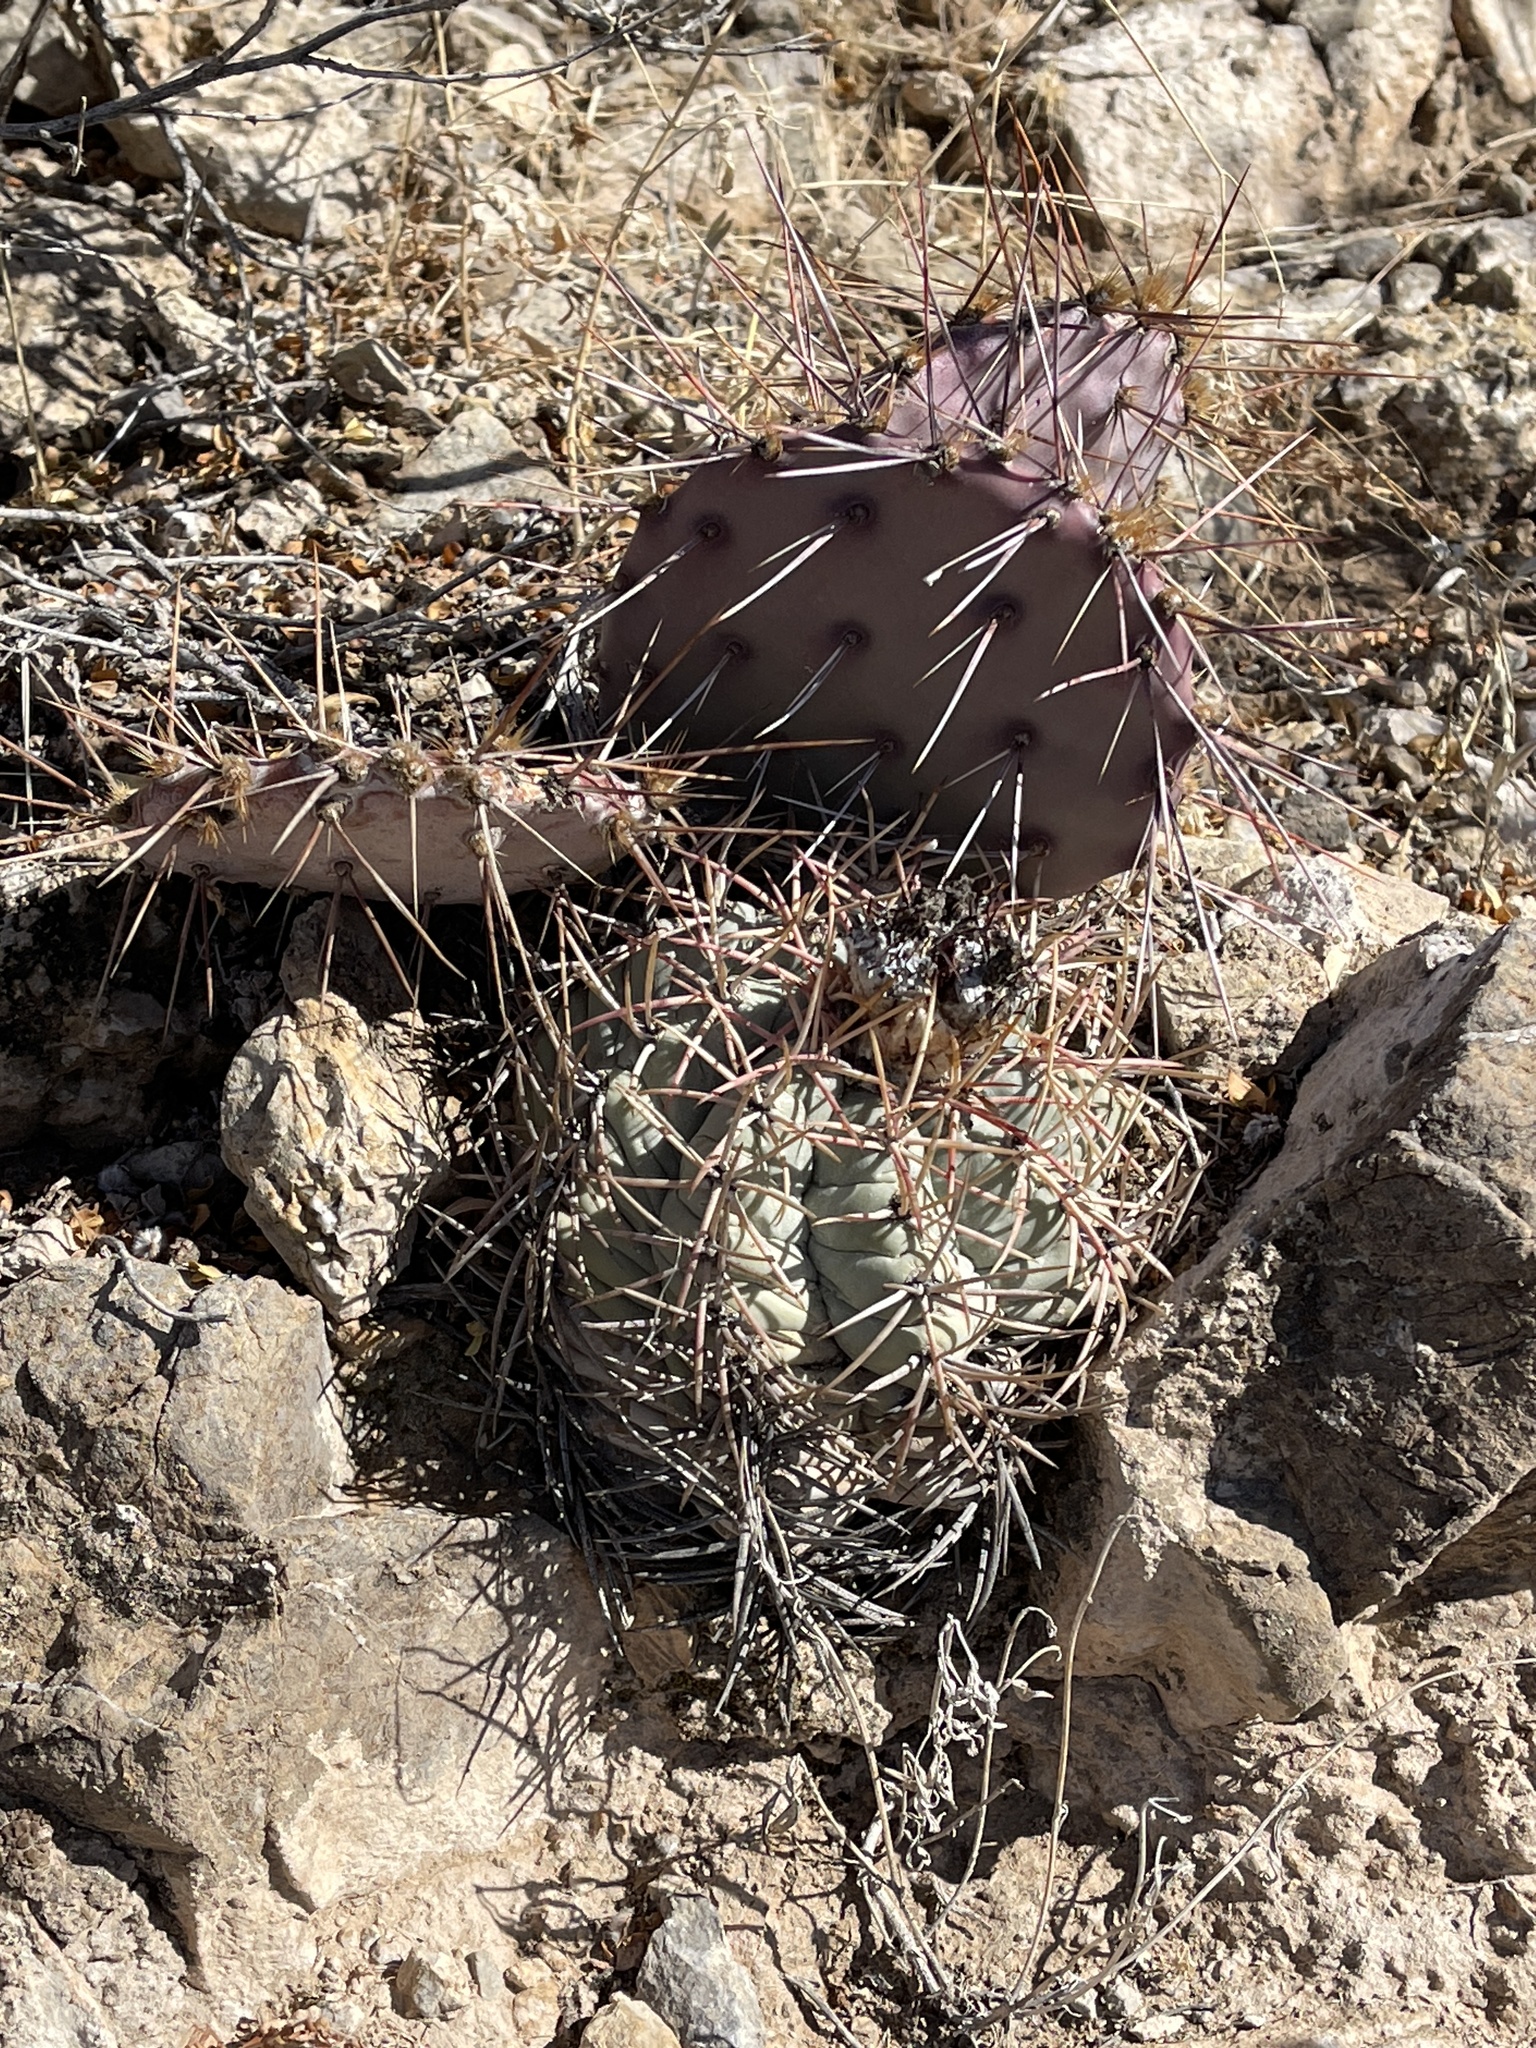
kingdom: Plantae
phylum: Tracheophyta
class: Magnoliopsida
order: Caryophyllales
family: Cactaceae
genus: Echinocactus
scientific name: Echinocactus horizonthalonius
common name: Devilshead
